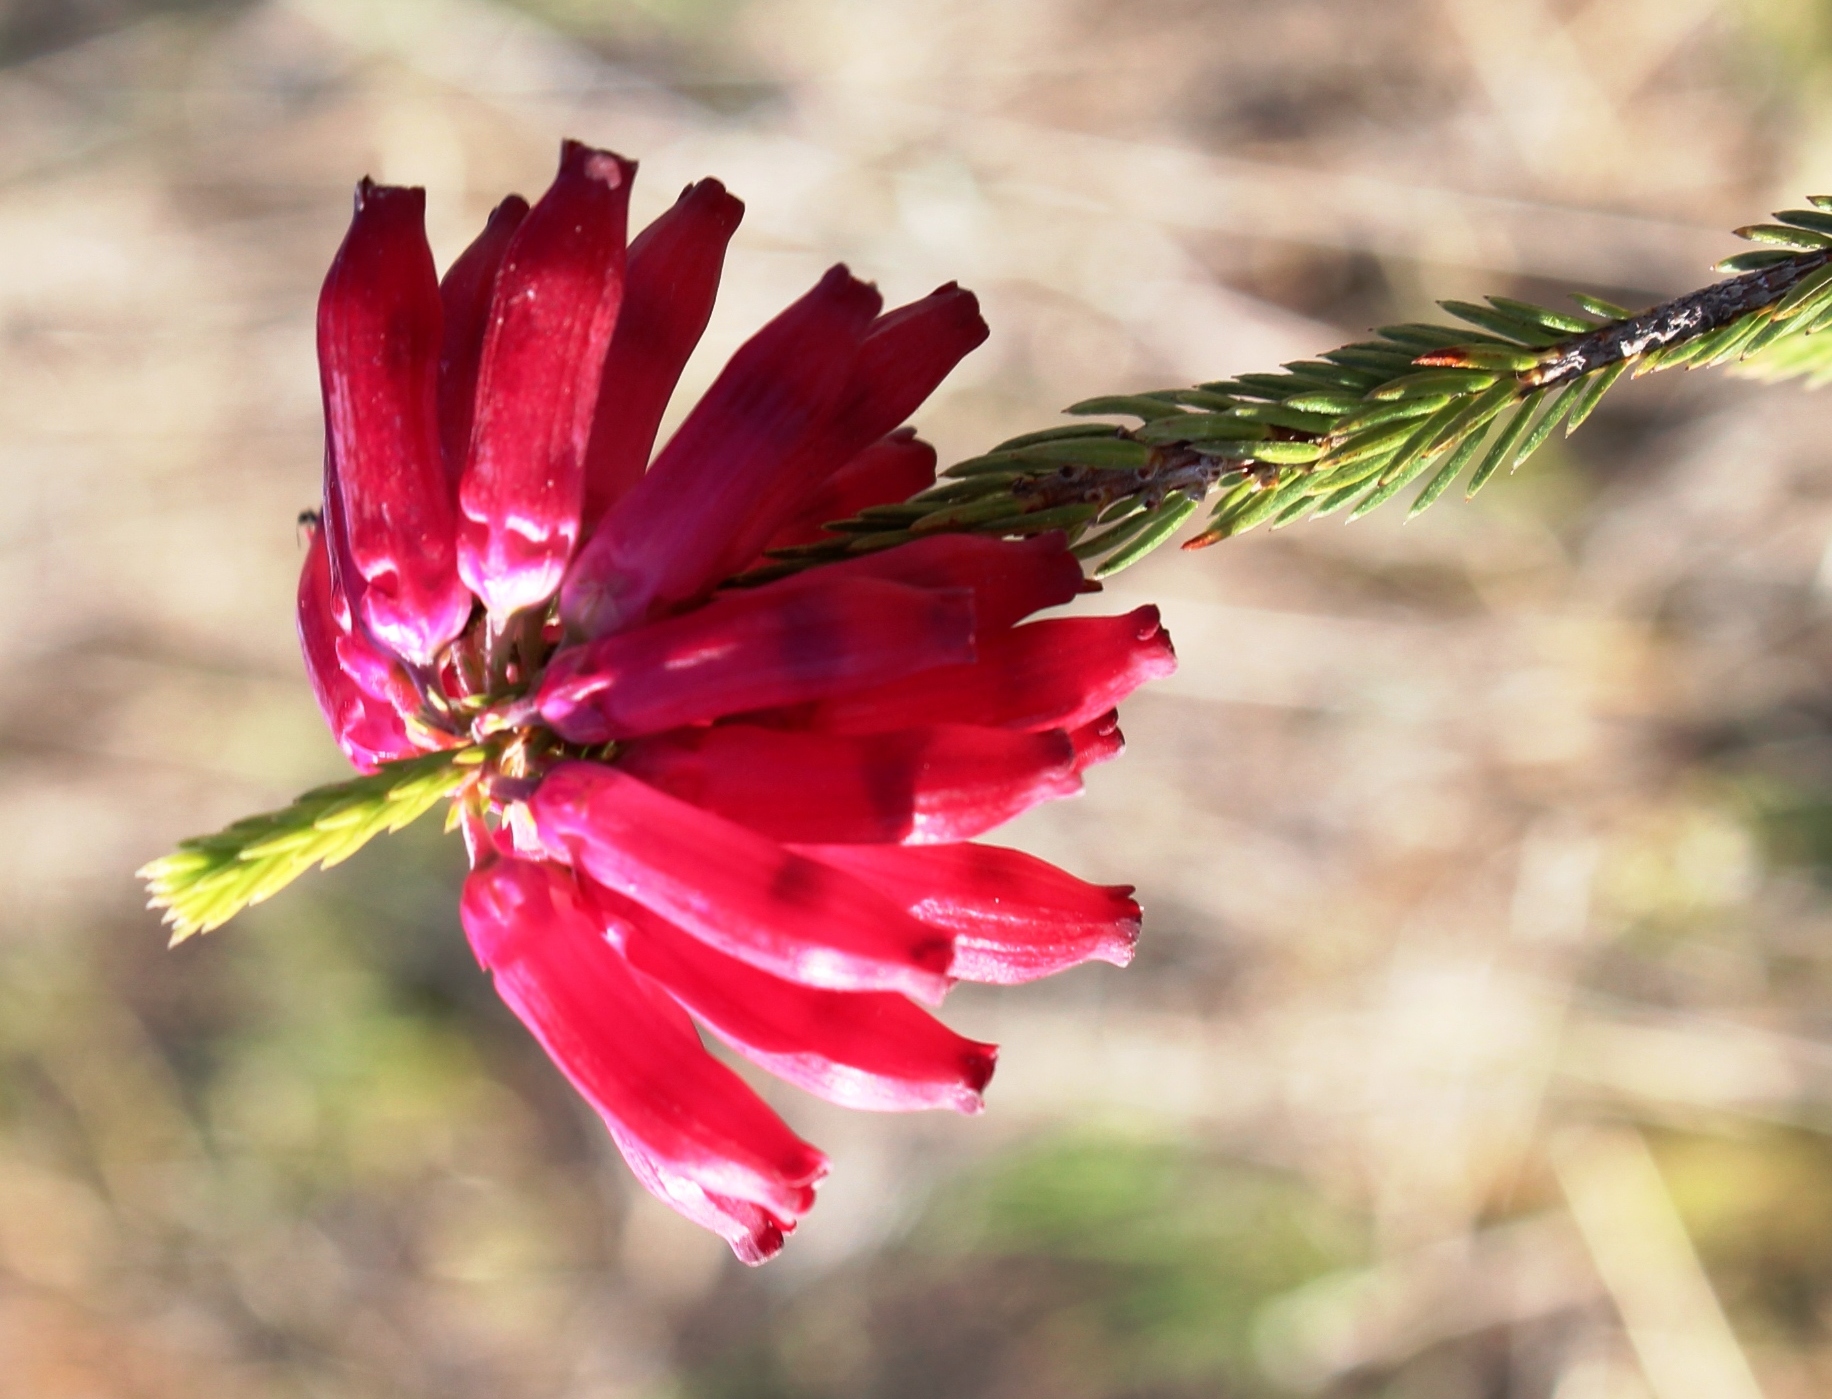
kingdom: Plantae
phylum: Tracheophyta
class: Magnoliopsida
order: Ericales
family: Ericaceae
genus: Erica
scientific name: Erica mammosa
